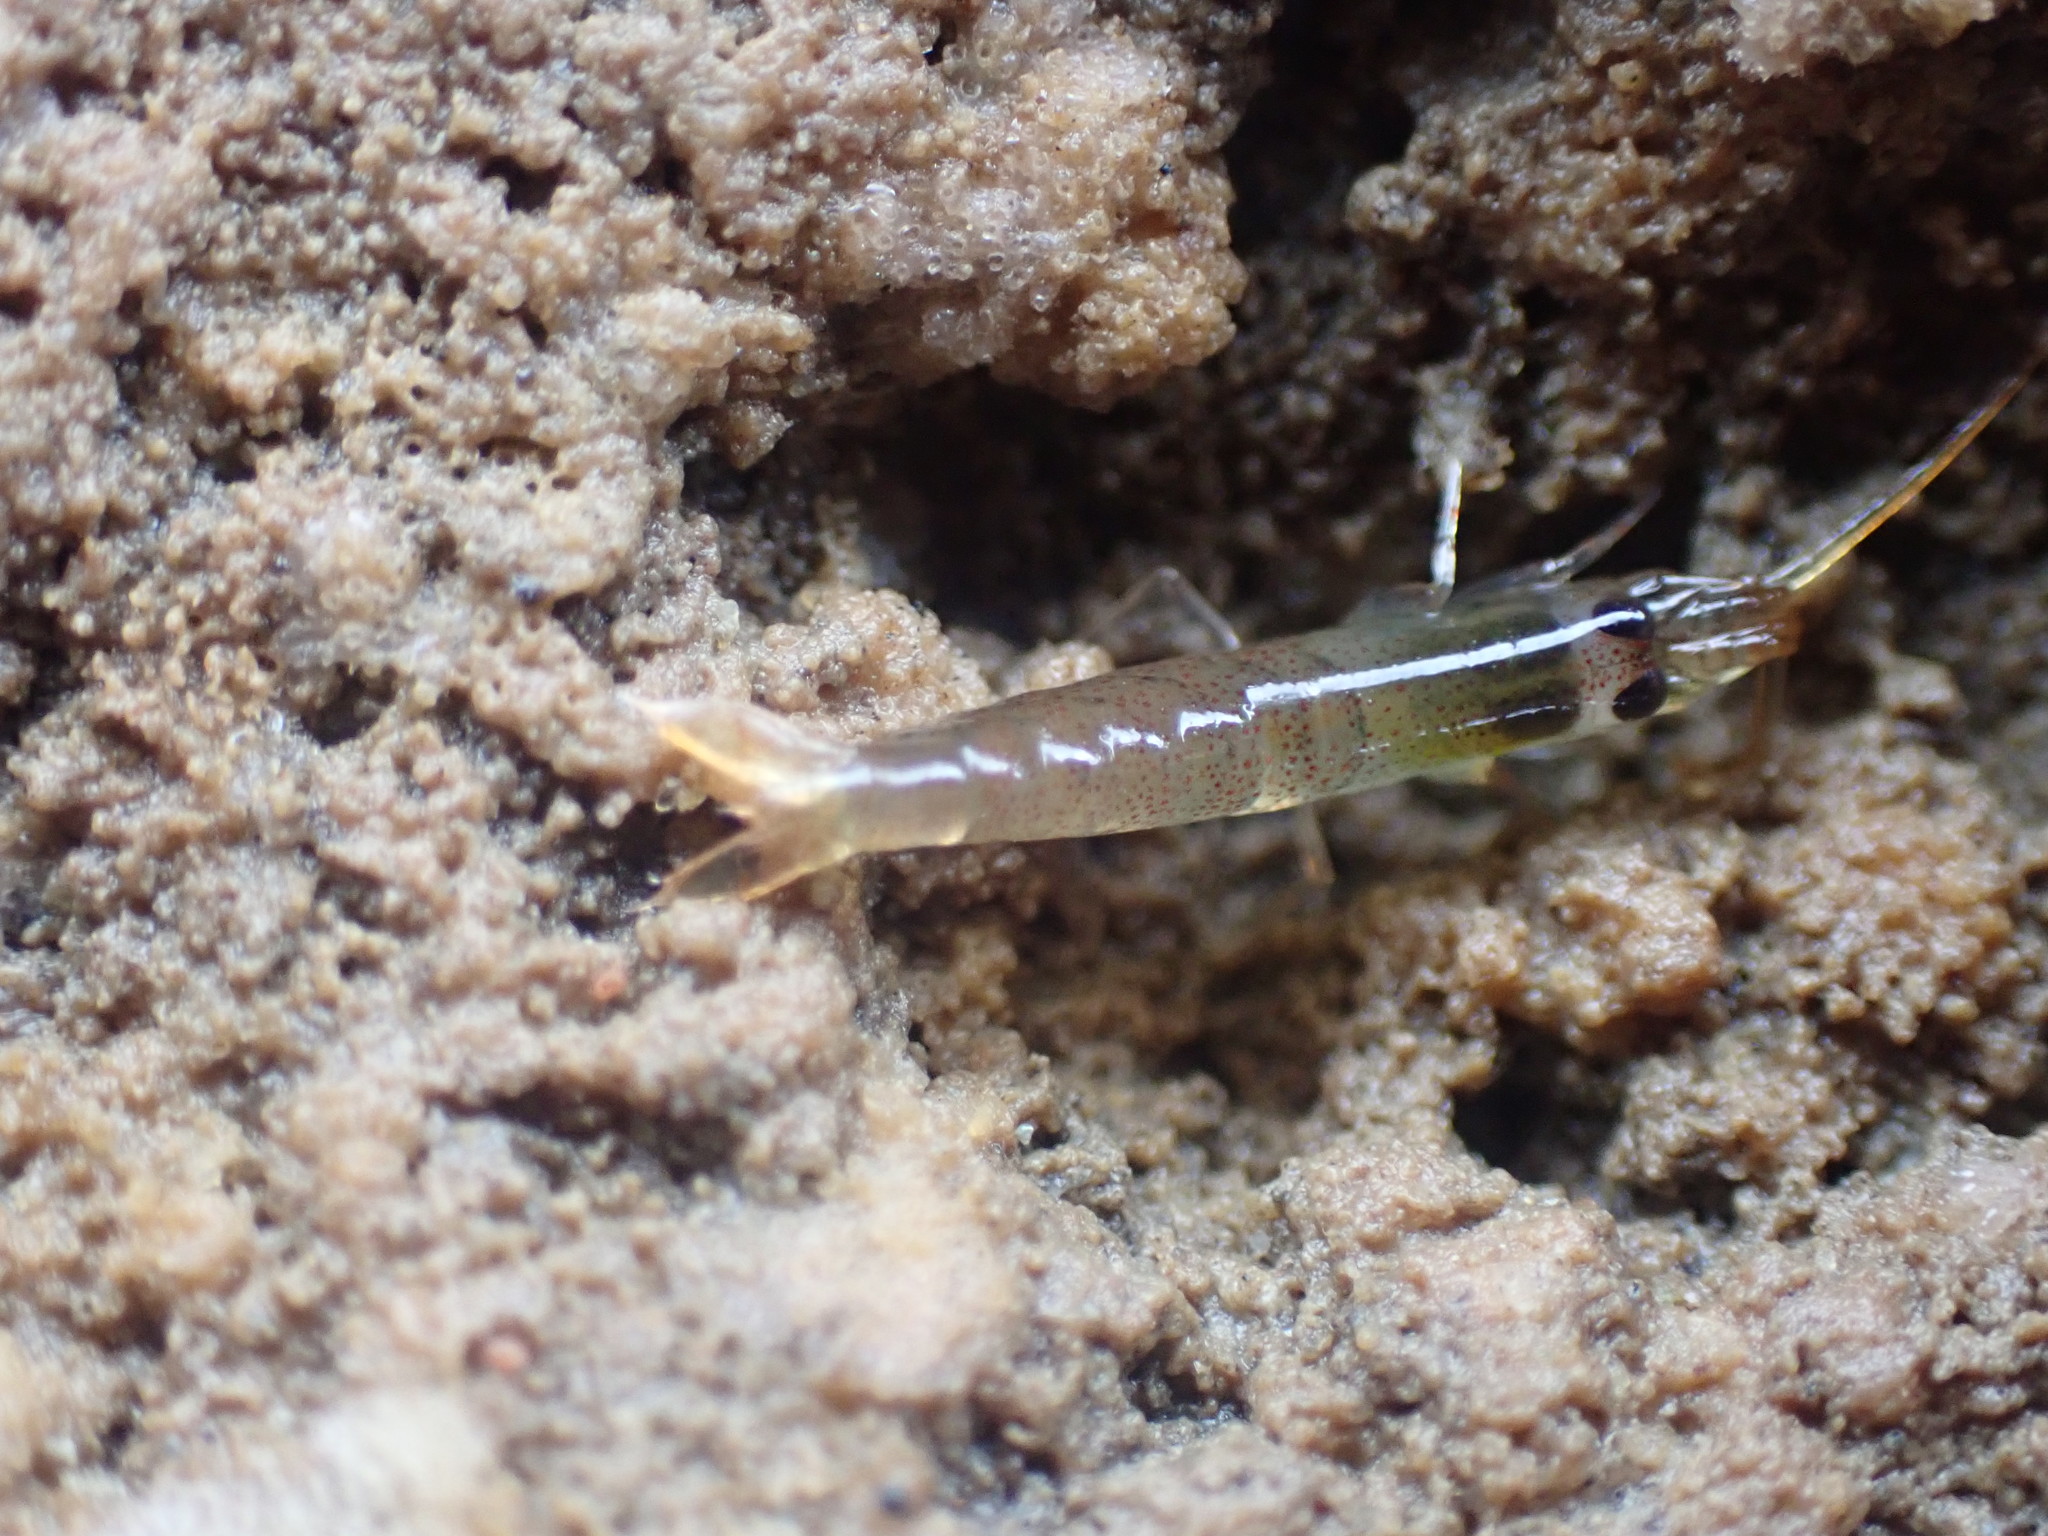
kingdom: Animalia
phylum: Arthropoda
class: Malacostraca
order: Decapoda
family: Alpheidae
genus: Betaeopsis
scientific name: Betaeopsis aequimanus
